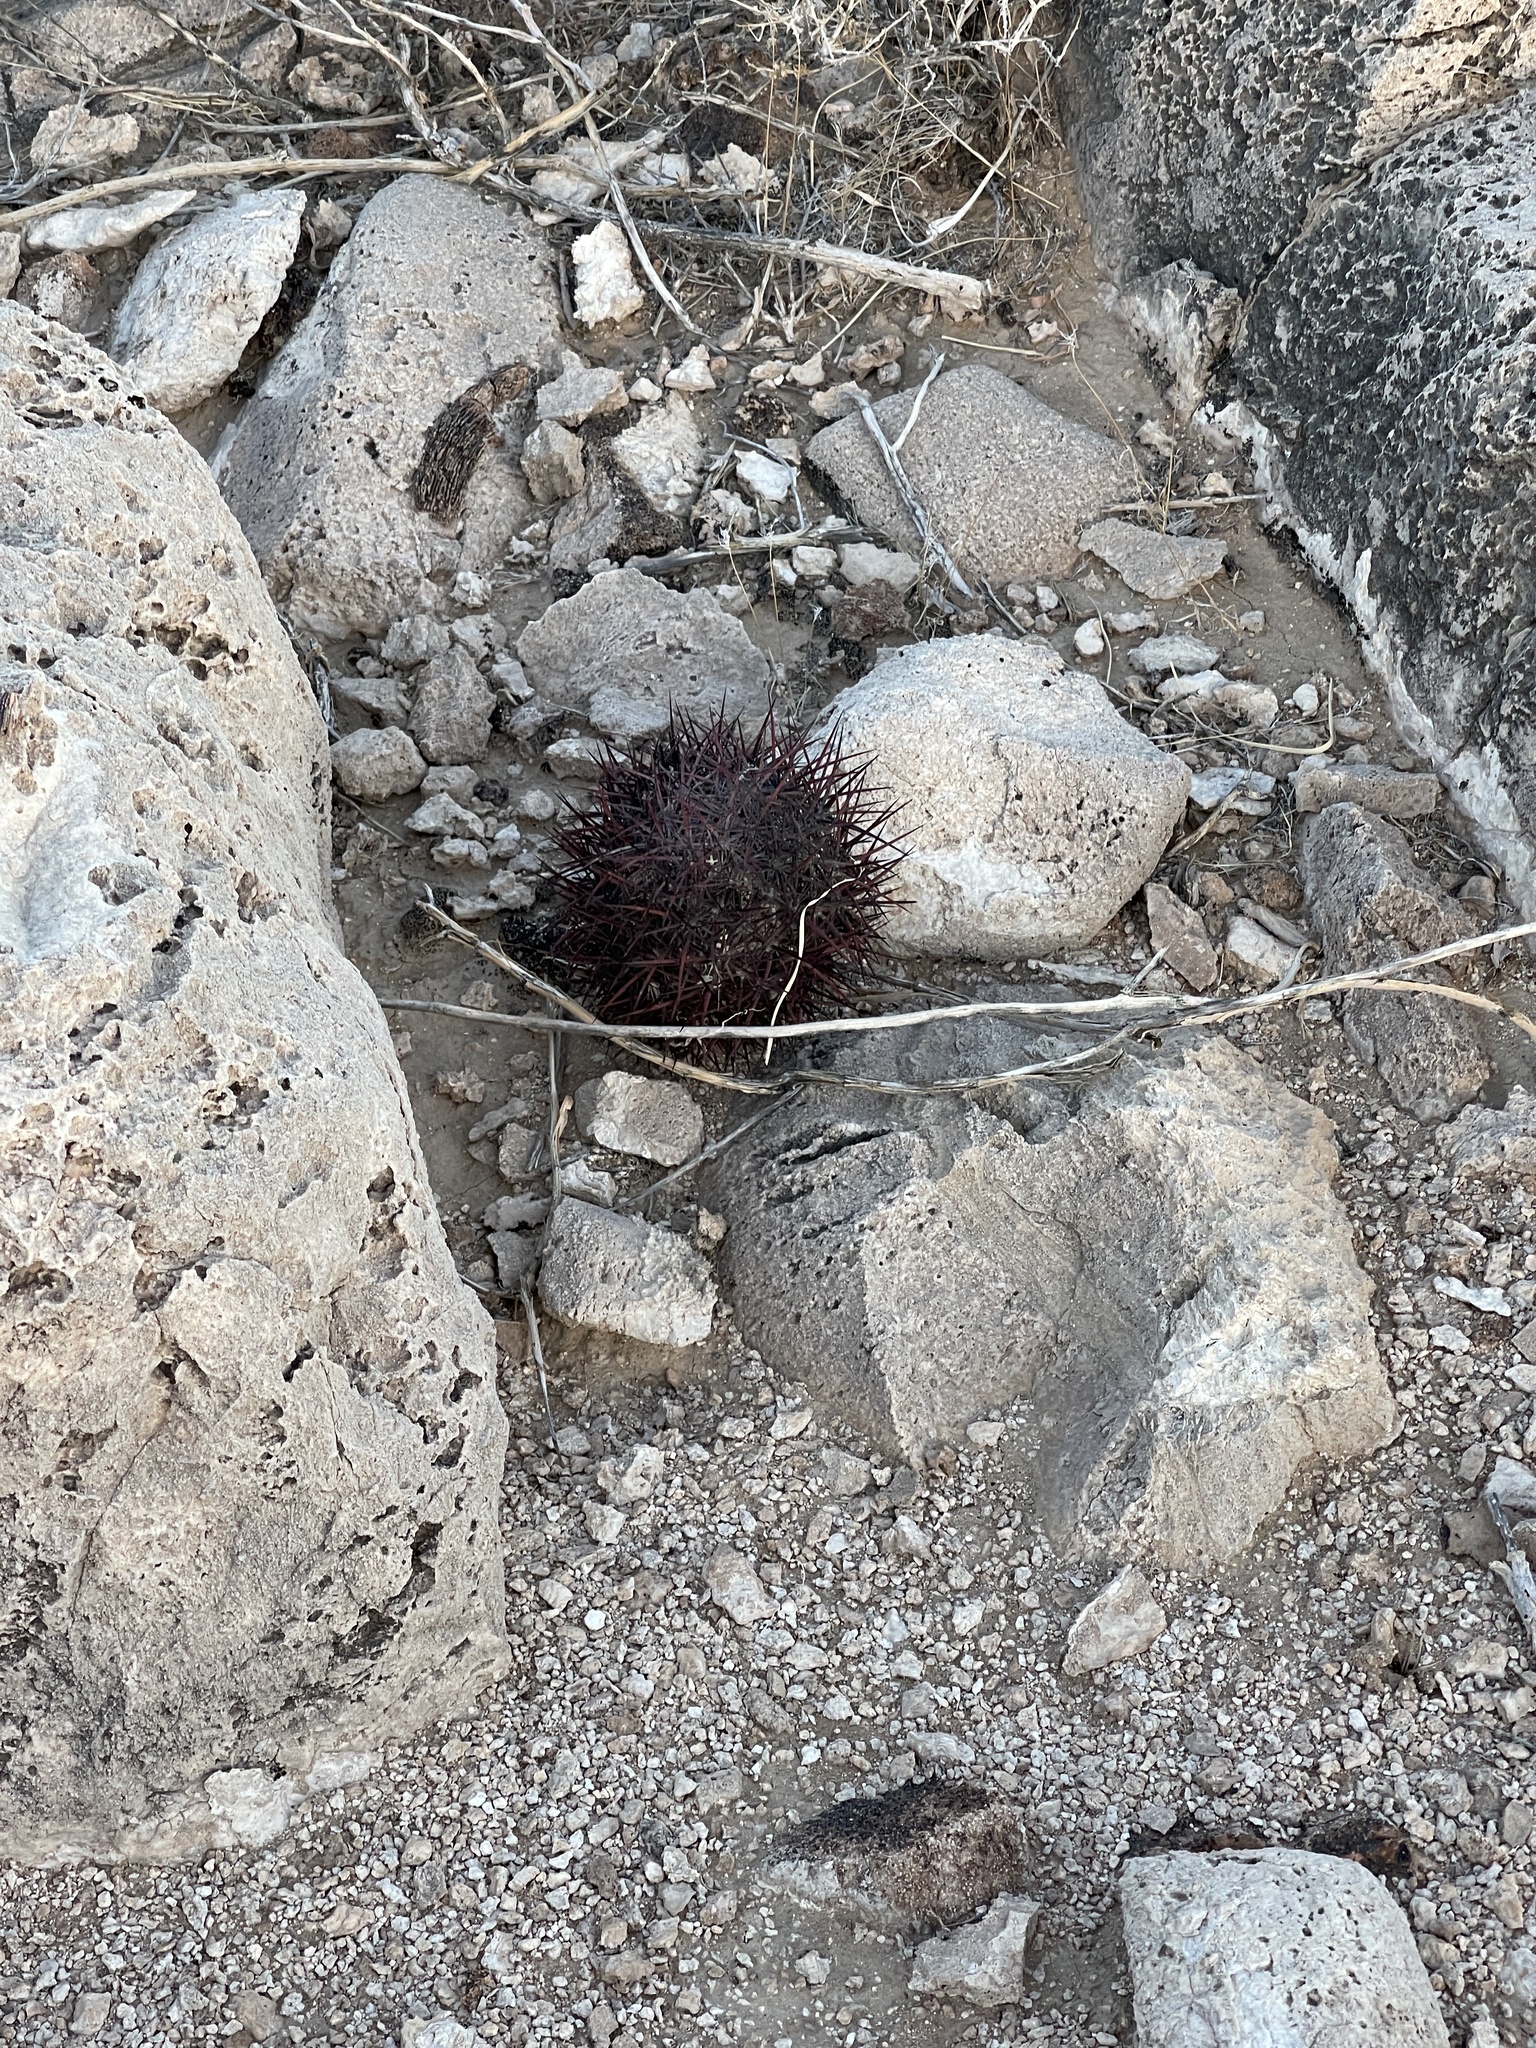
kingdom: Plantae
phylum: Tracheophyta
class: Magnoliopsida
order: Caryophyllales
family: Cactaceae
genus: Sclerocactus
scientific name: Sclerocactus johnsonii
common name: Eight-spine fishhook cactus
